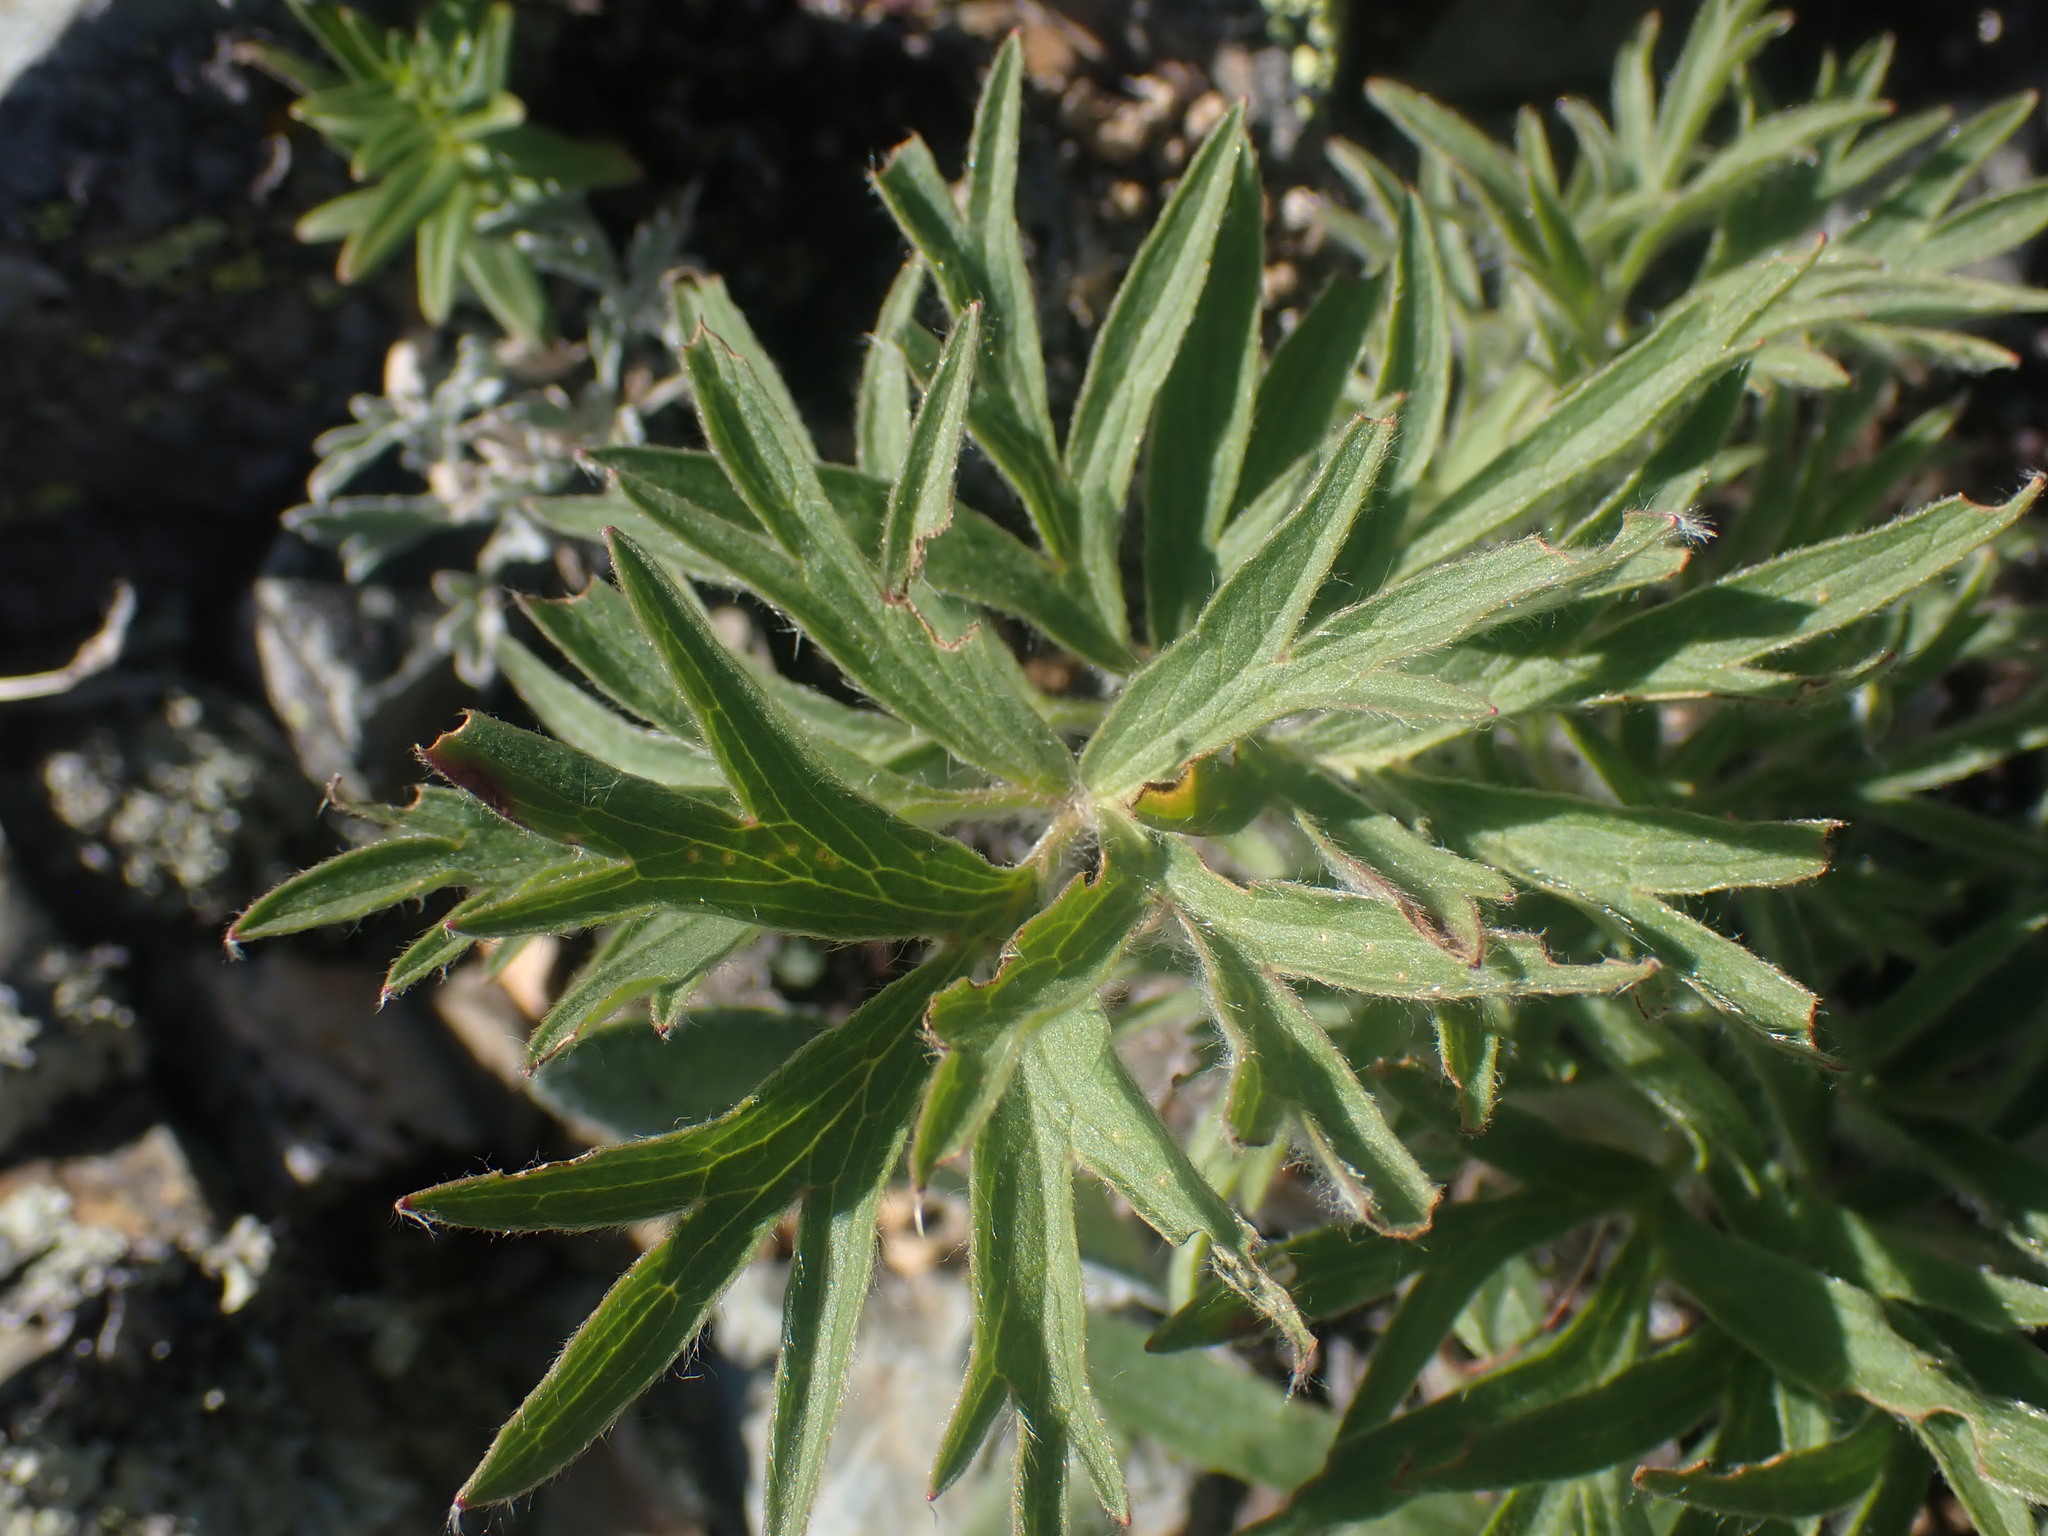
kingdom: Plantae
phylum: Tracheophyta
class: Magnoliopsida
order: Ranunculales
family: Ranunculaceae
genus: Pulsatilla
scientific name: Pulsatilla nuttalliana
